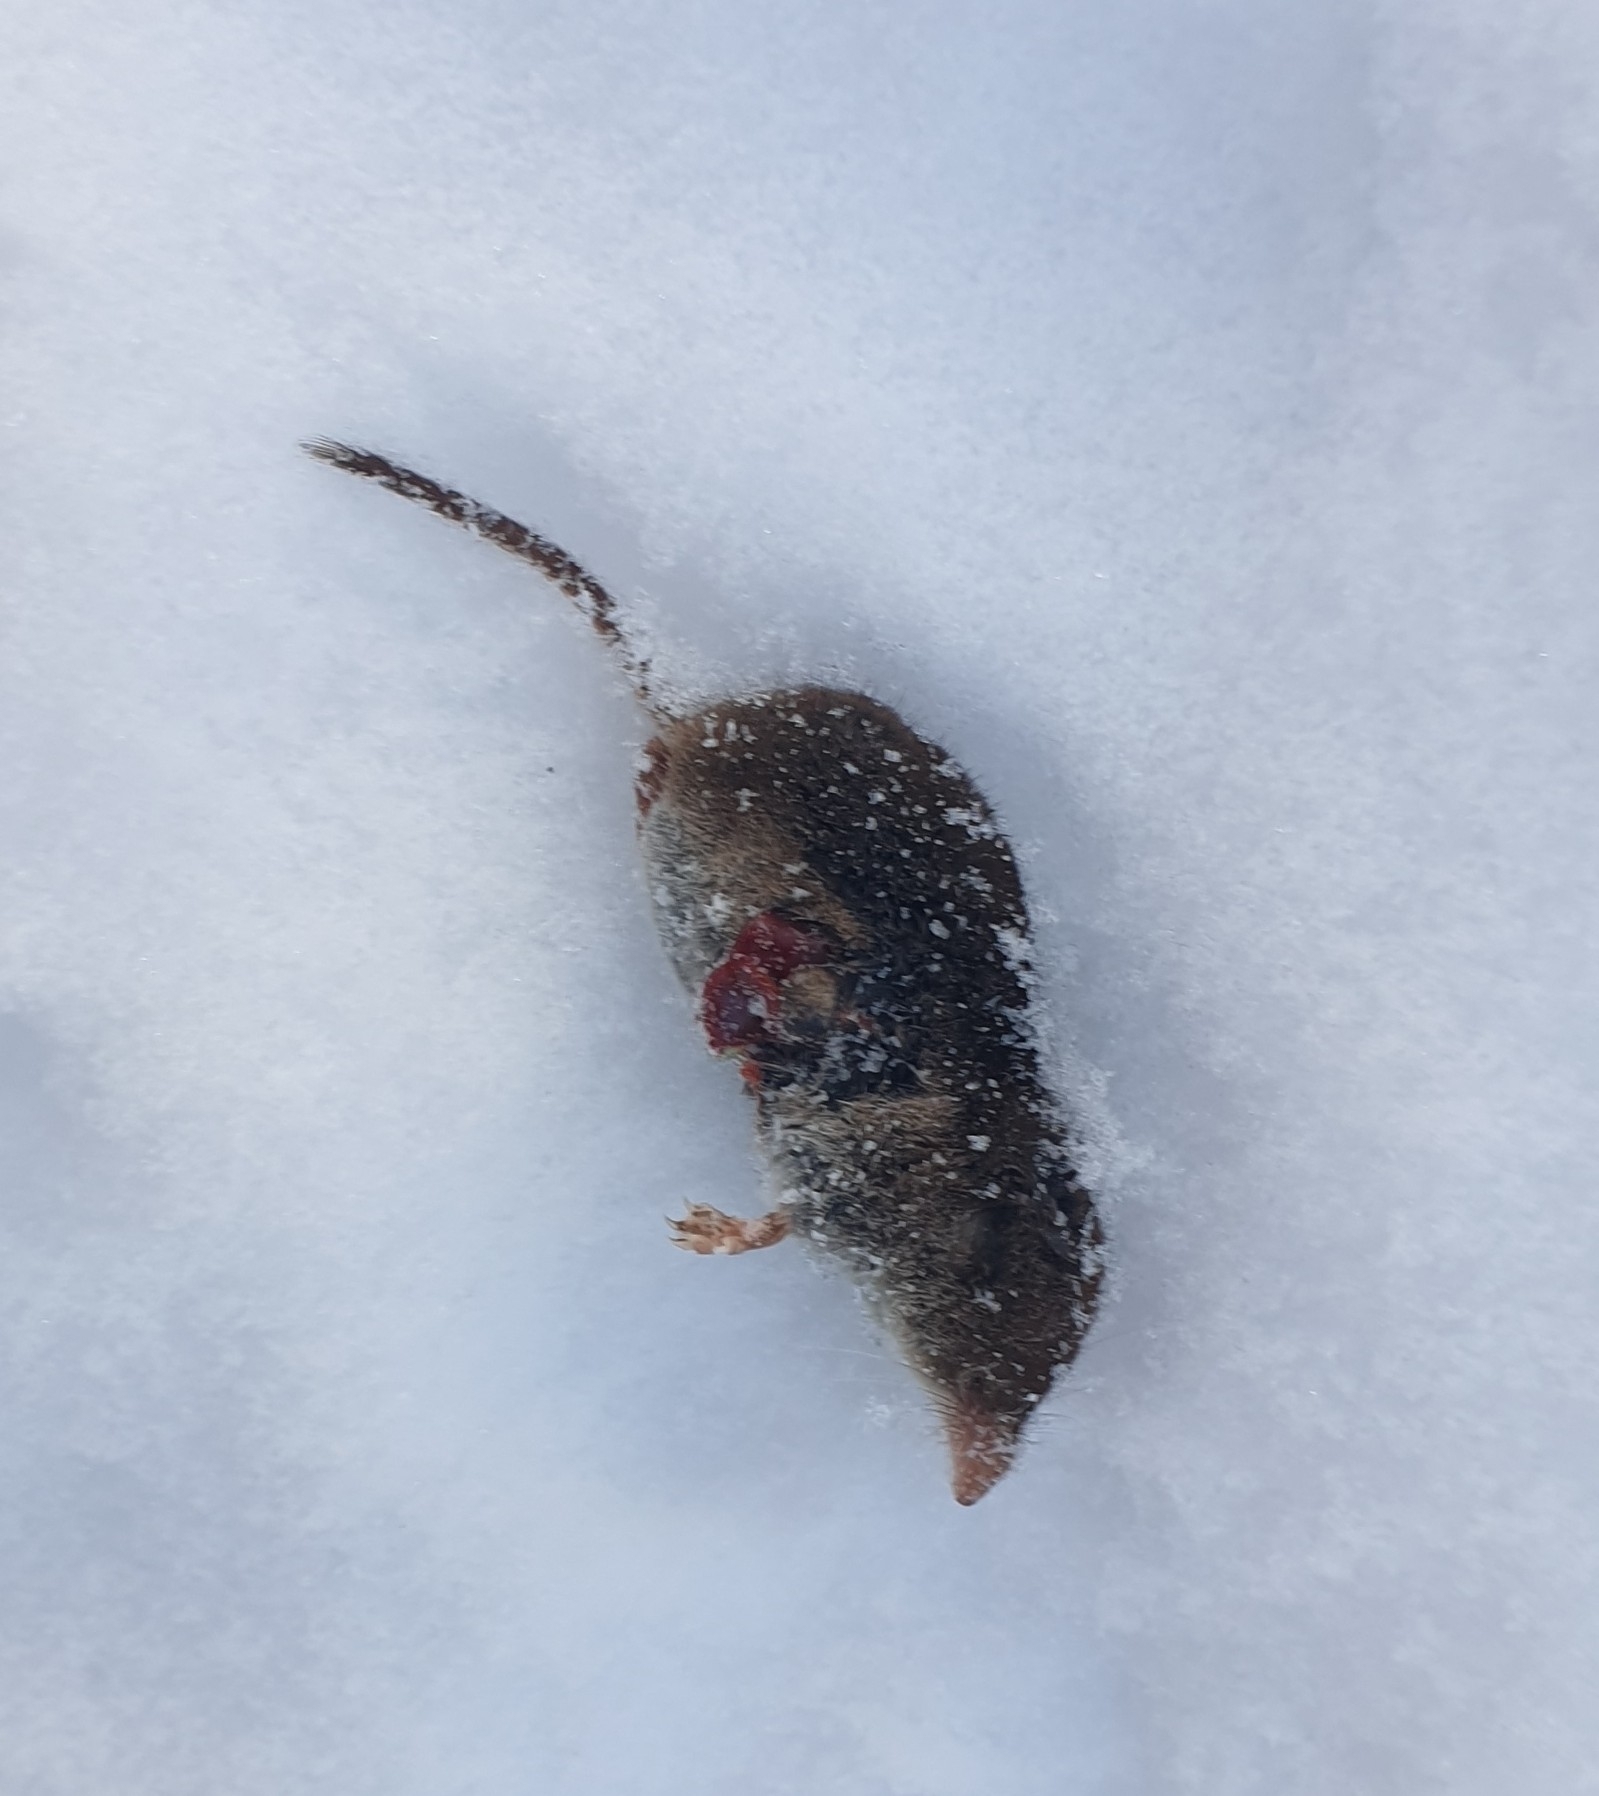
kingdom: Animalia
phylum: Chordata
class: Mammalia
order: Soricomorpha
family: Soricidae
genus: Sorex
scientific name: Sorex araneus
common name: Common shrew
